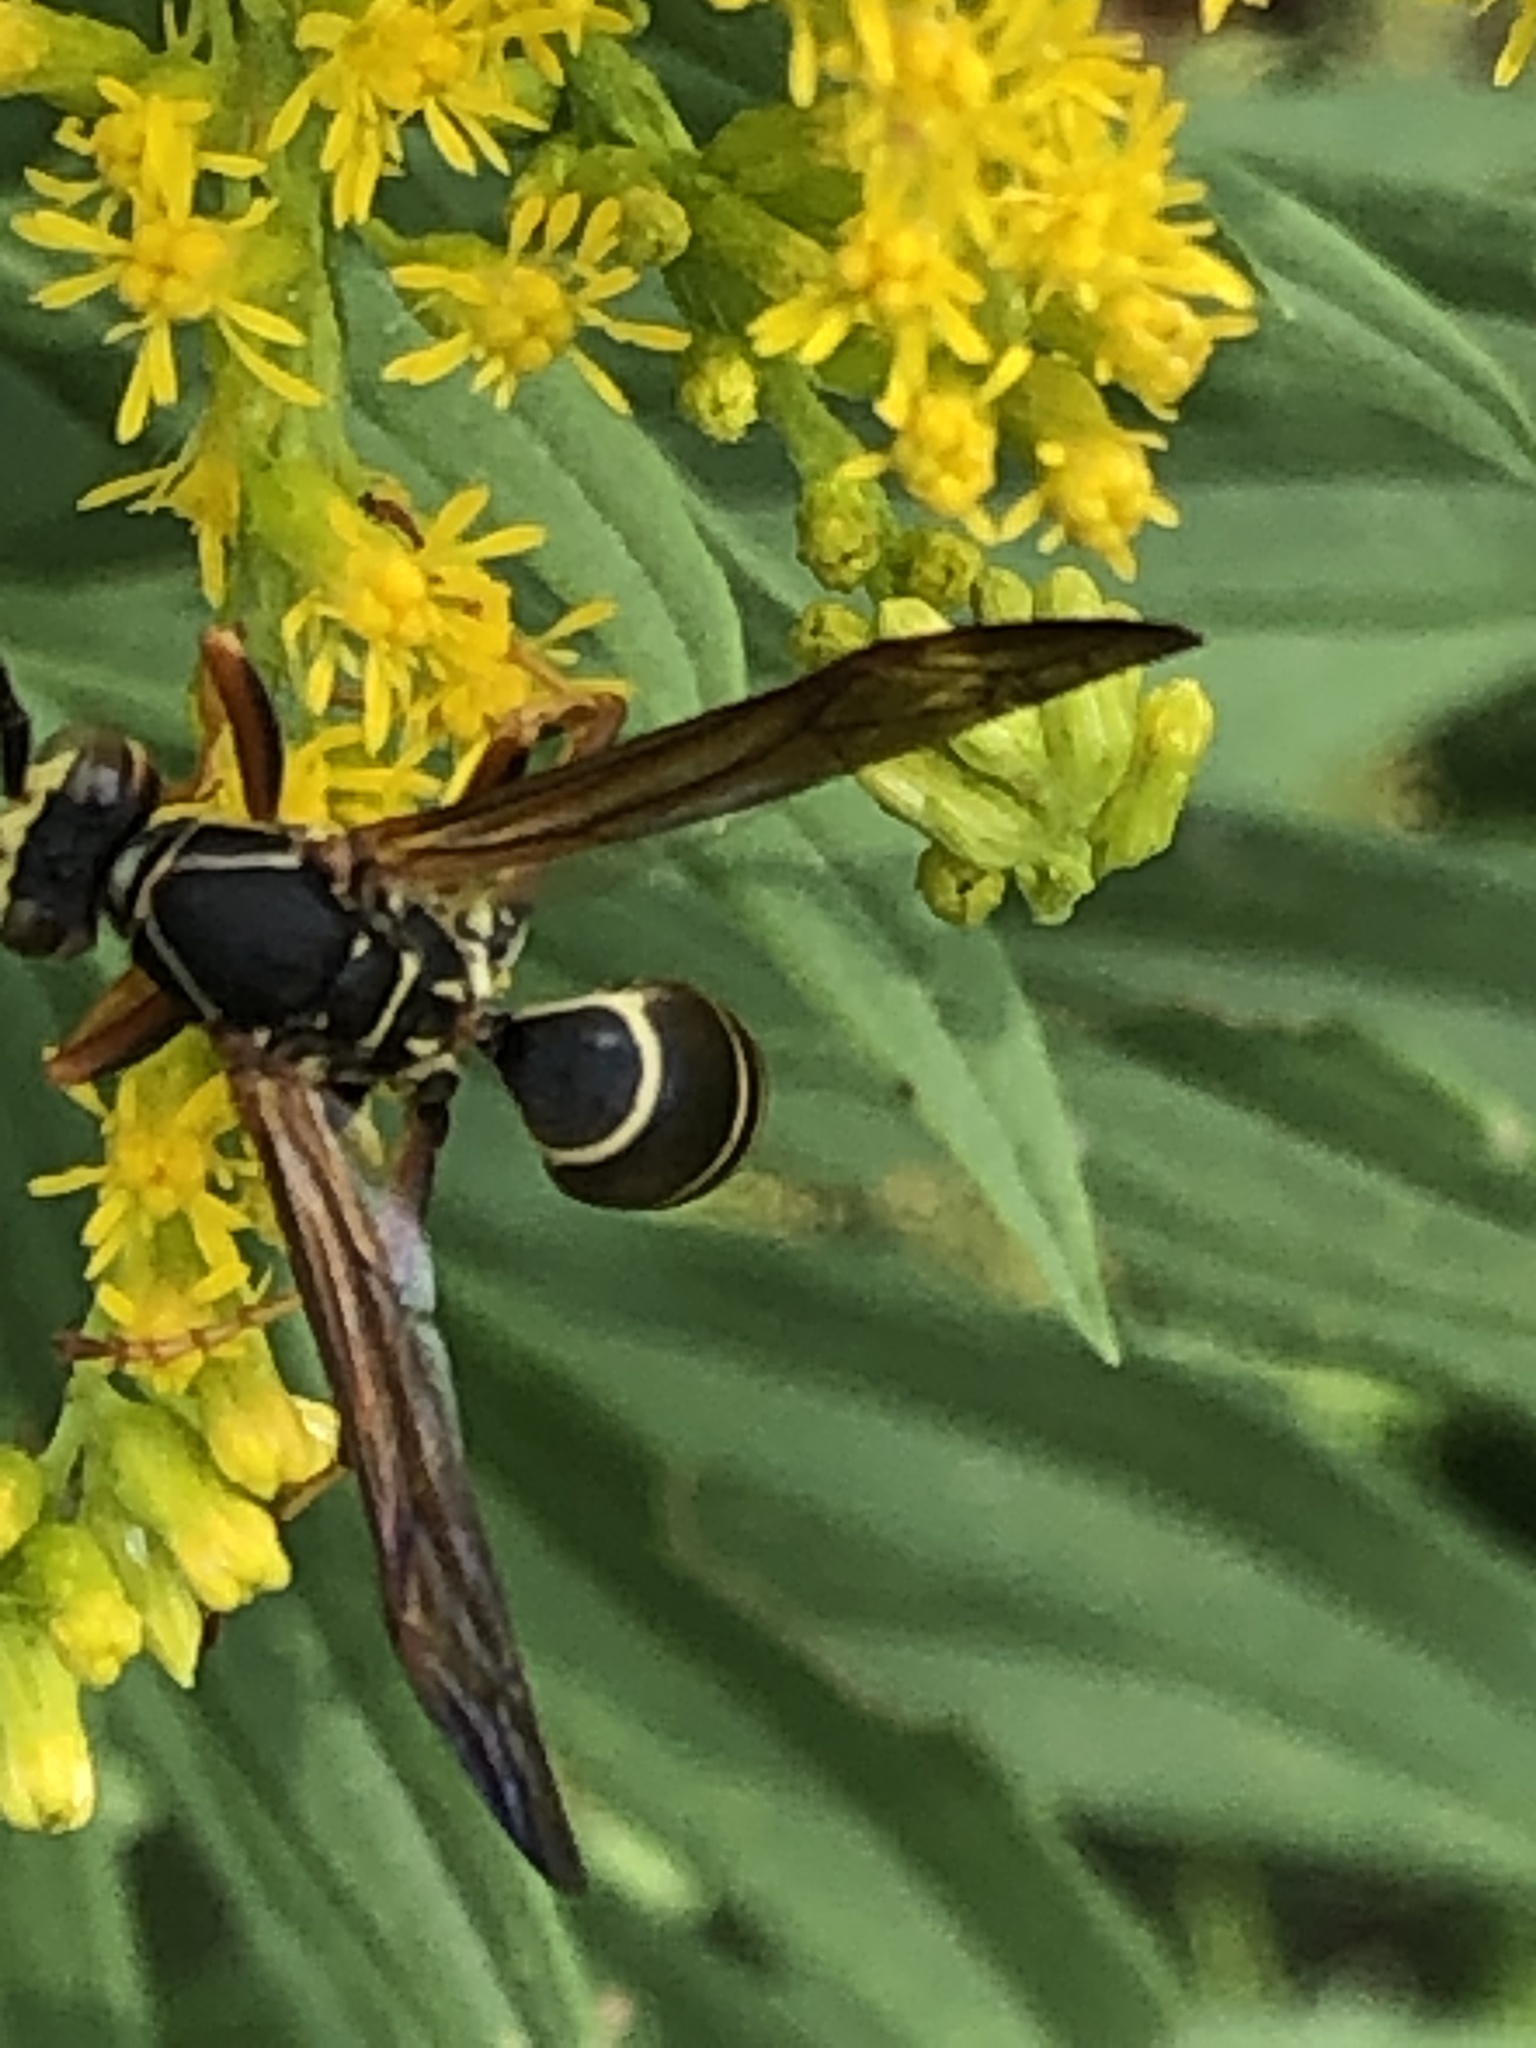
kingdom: Animalia
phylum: Arthropoda
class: Insecta
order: Hymenoptera
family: Eumenidae
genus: Polistes
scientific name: Polistes fuscatus
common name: Dark paper wasp
